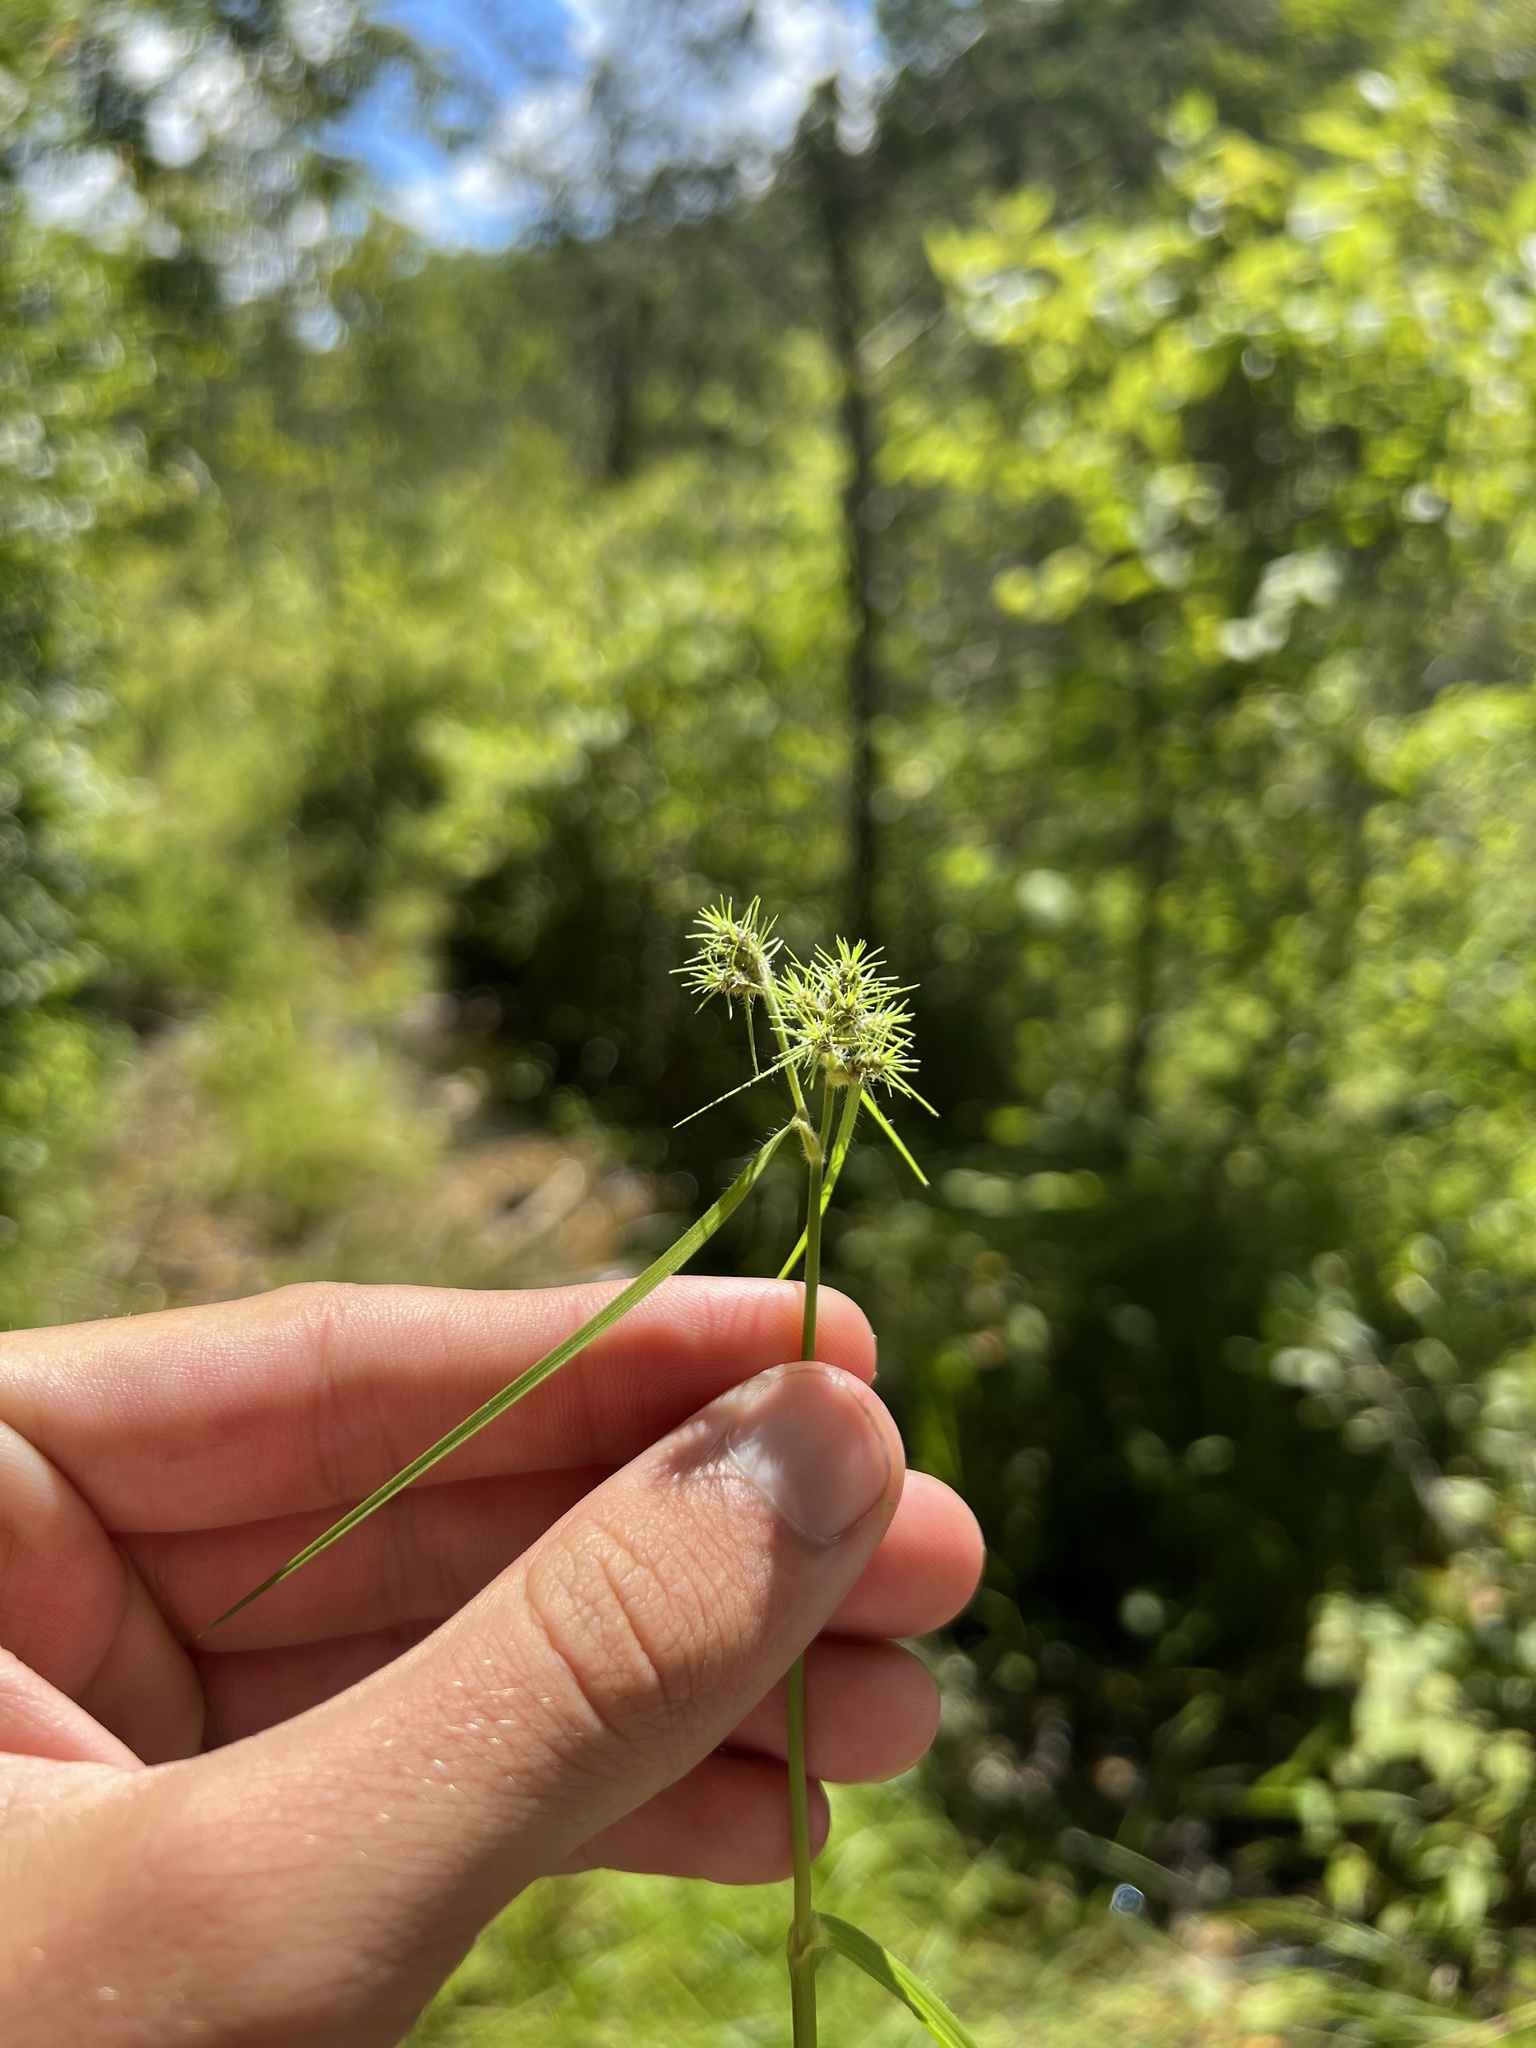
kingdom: Plantae
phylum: Tracheophyta
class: Liliopsida
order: Poales
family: Cyperaceae
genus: Fuirena
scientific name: Fuirena simplex
